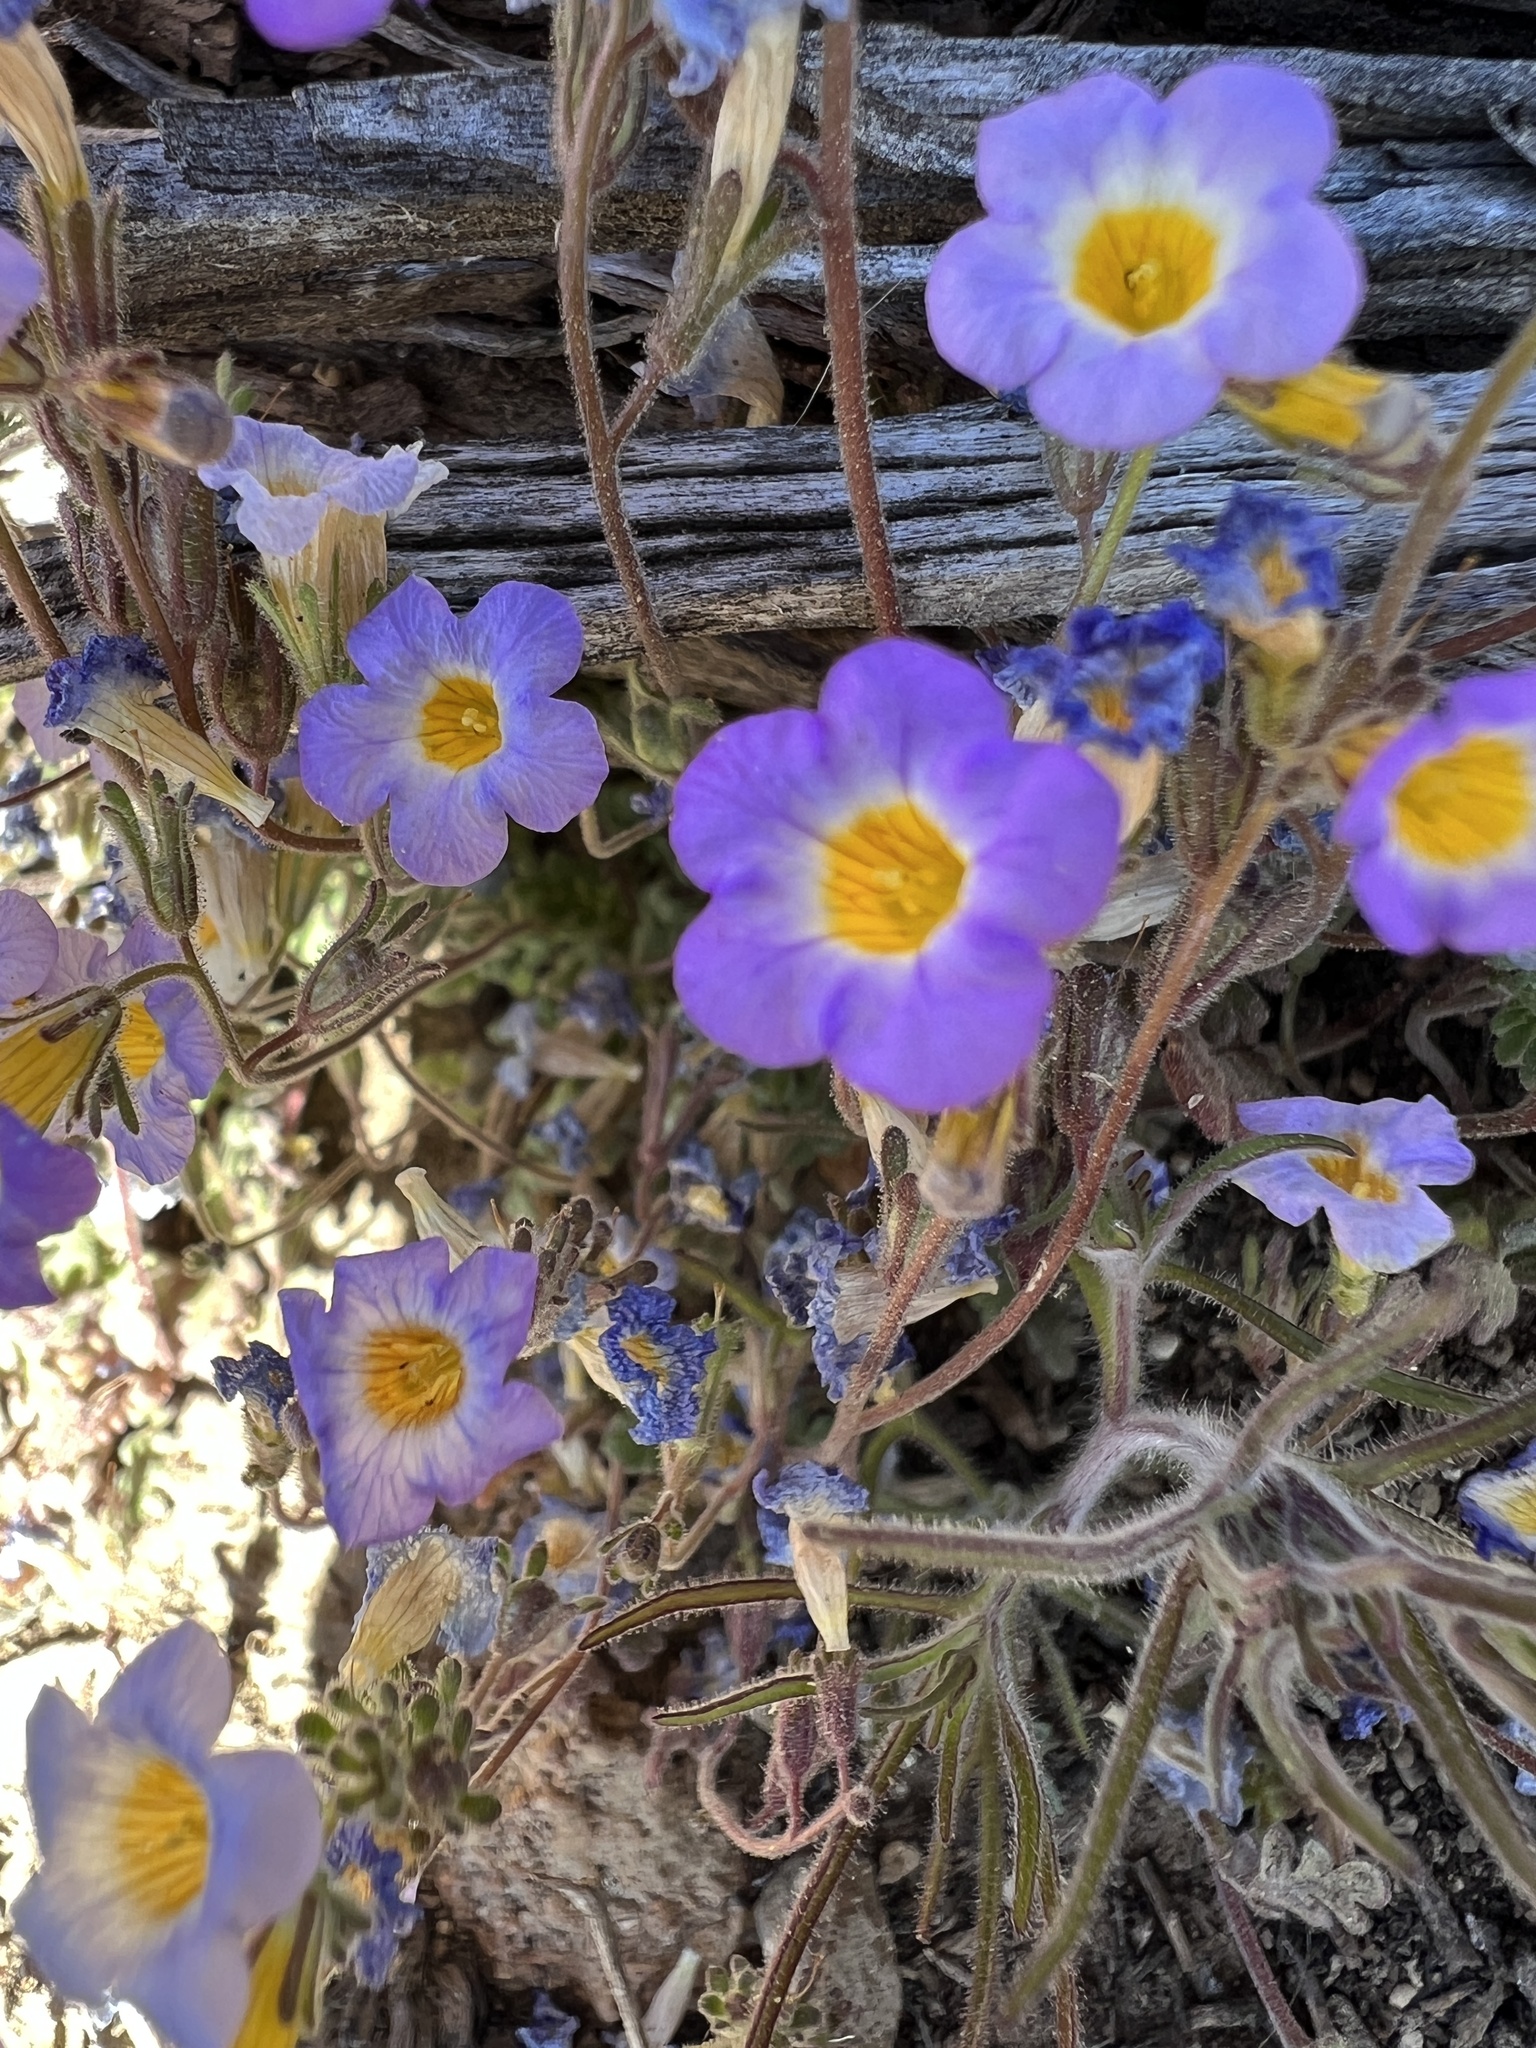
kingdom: Plantae
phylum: Tracheophyta
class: Magnoliopsida
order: Boraginales
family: Hydrophyllaceae
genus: Phacelia
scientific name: Phacelia fremontii
